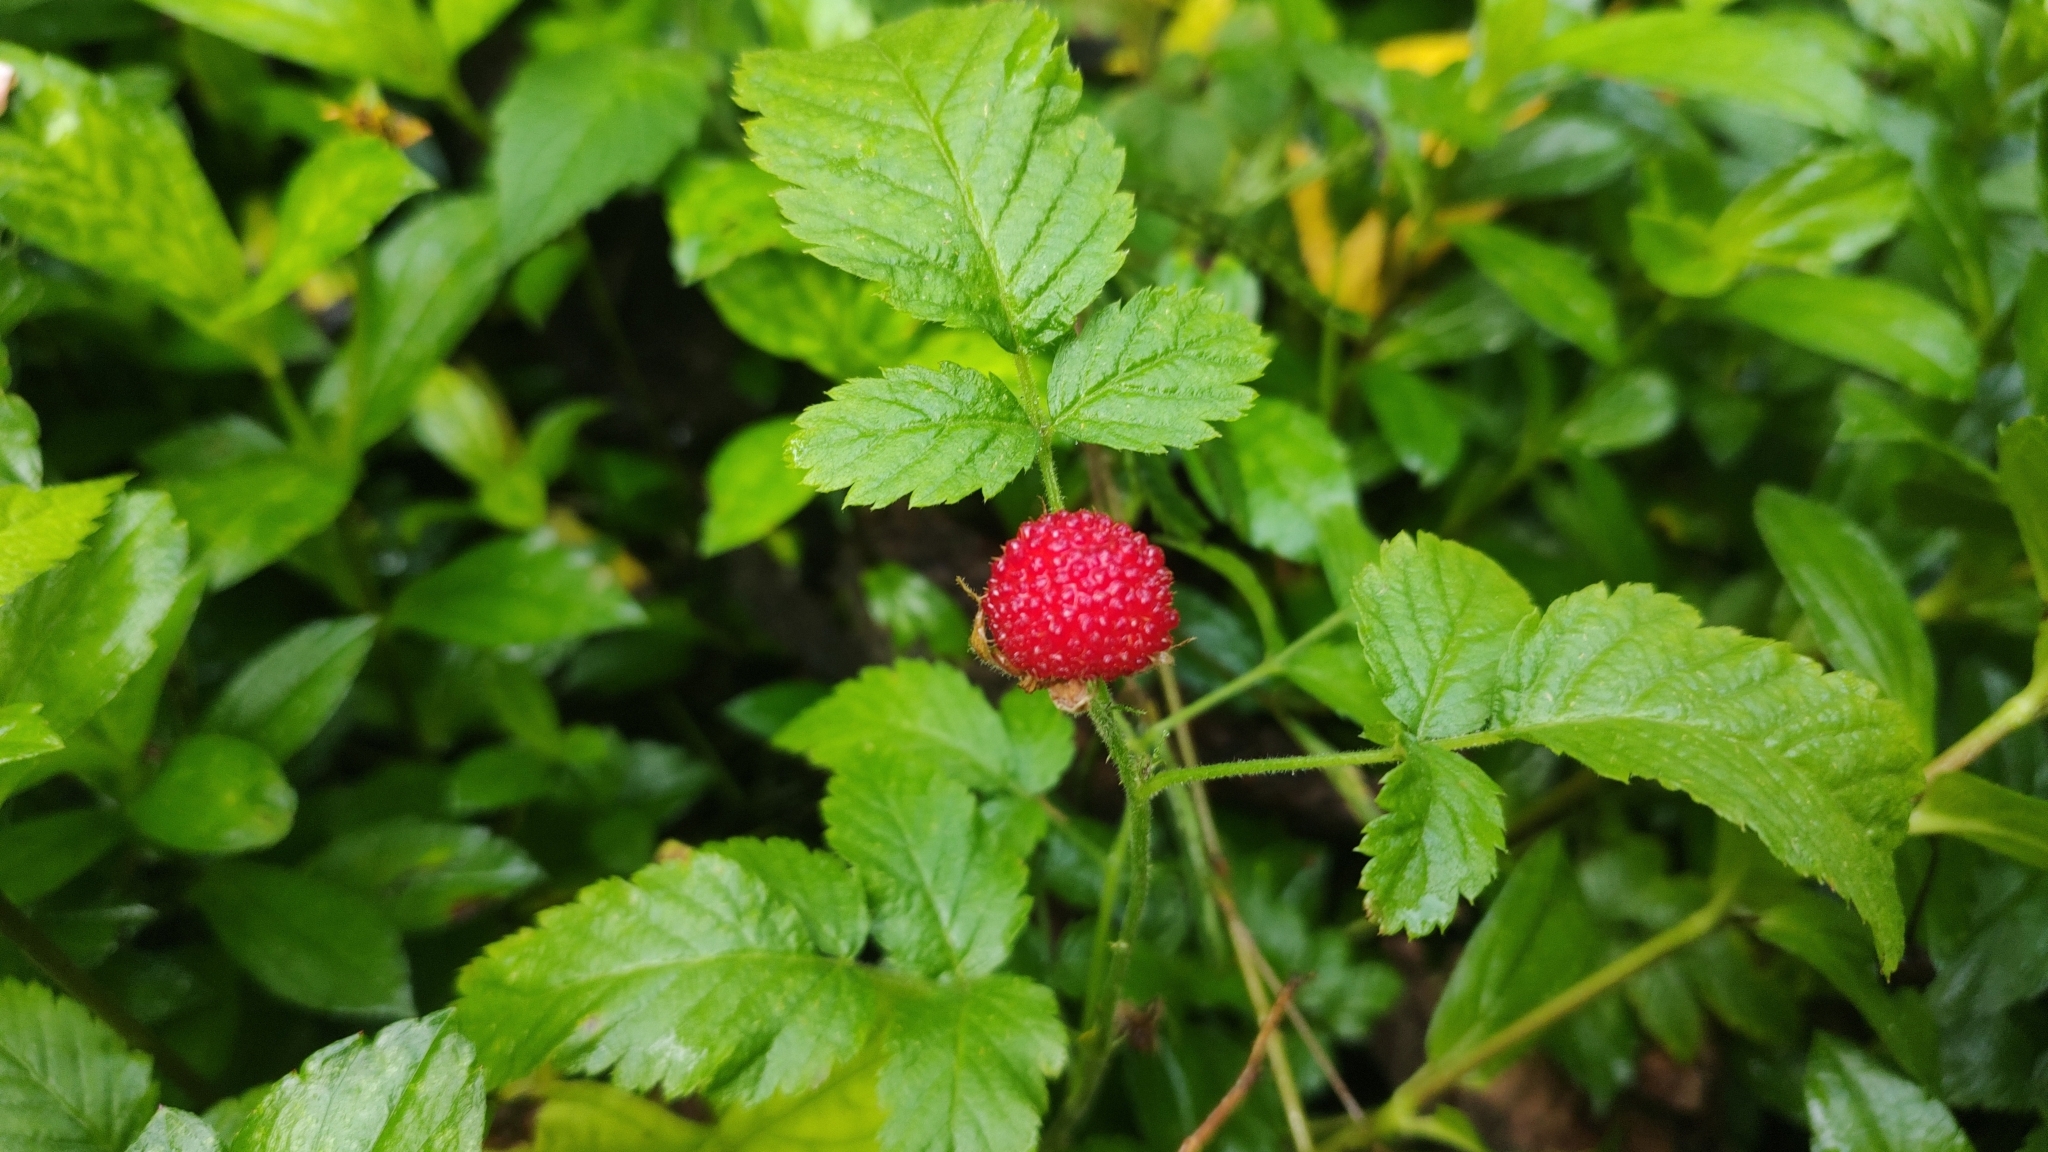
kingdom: Plantae
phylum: Tracheophyta
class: Magnoliopsida
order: Rosales
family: Rosaceae
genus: Rubus
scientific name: Rubus rosifolius
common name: Roseleaf raspberry
